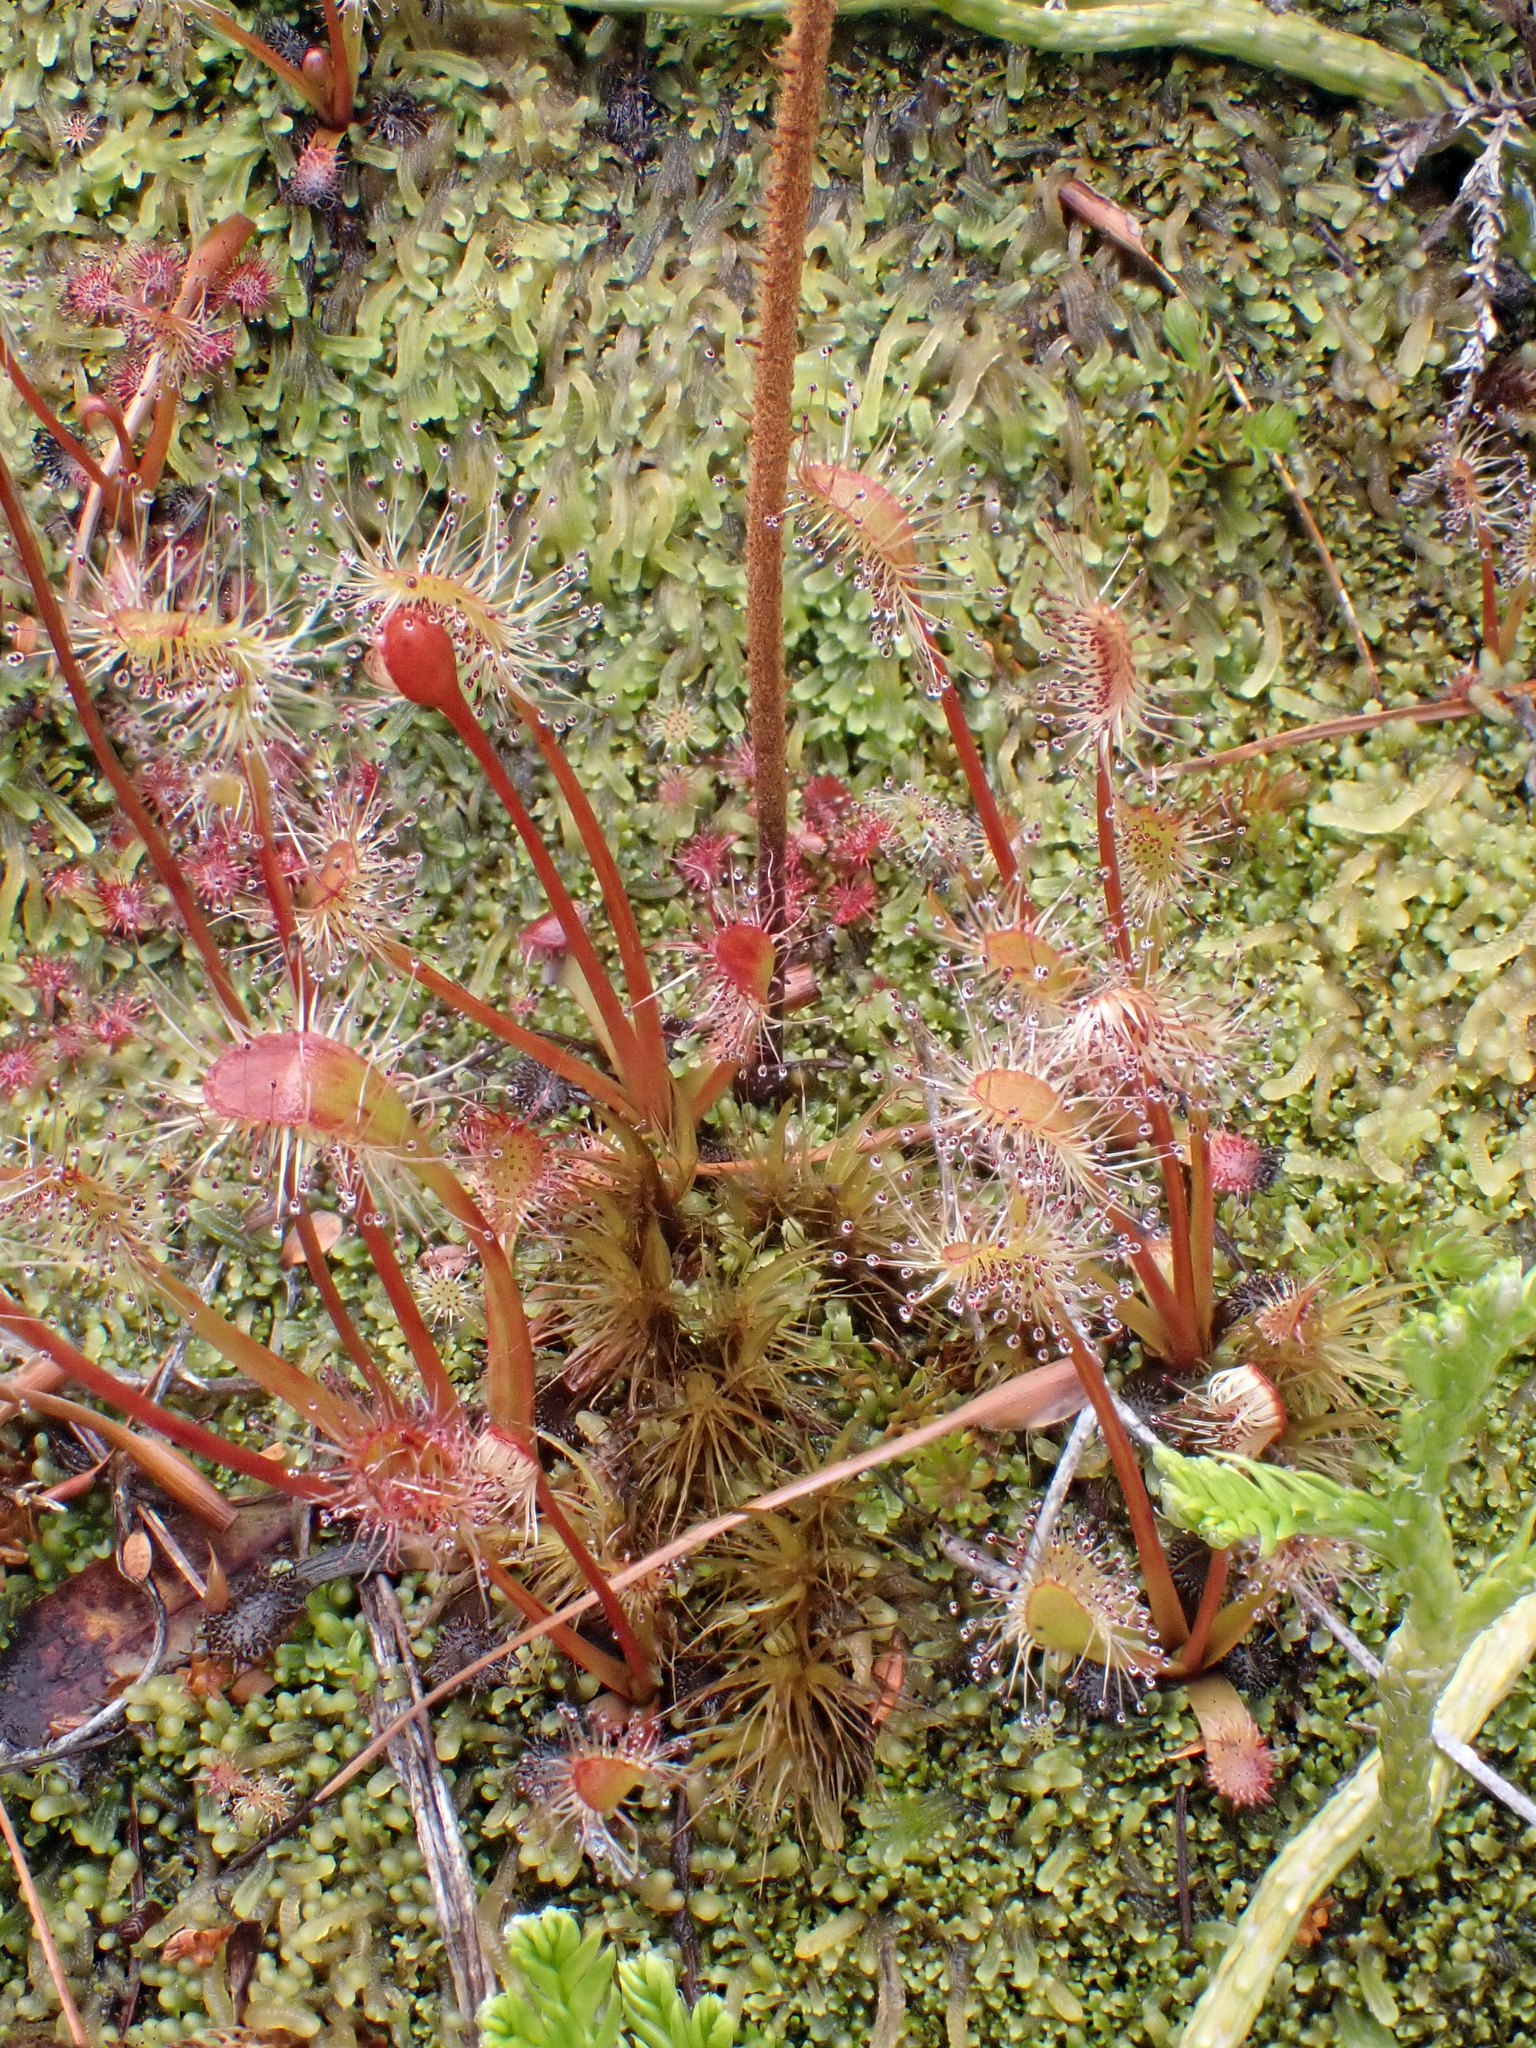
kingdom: Plantae
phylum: Tracheophyta
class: Magnoliopsida
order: Caryophyllales
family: Droseraceae
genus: Drosera
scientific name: Drosera stenopetala
